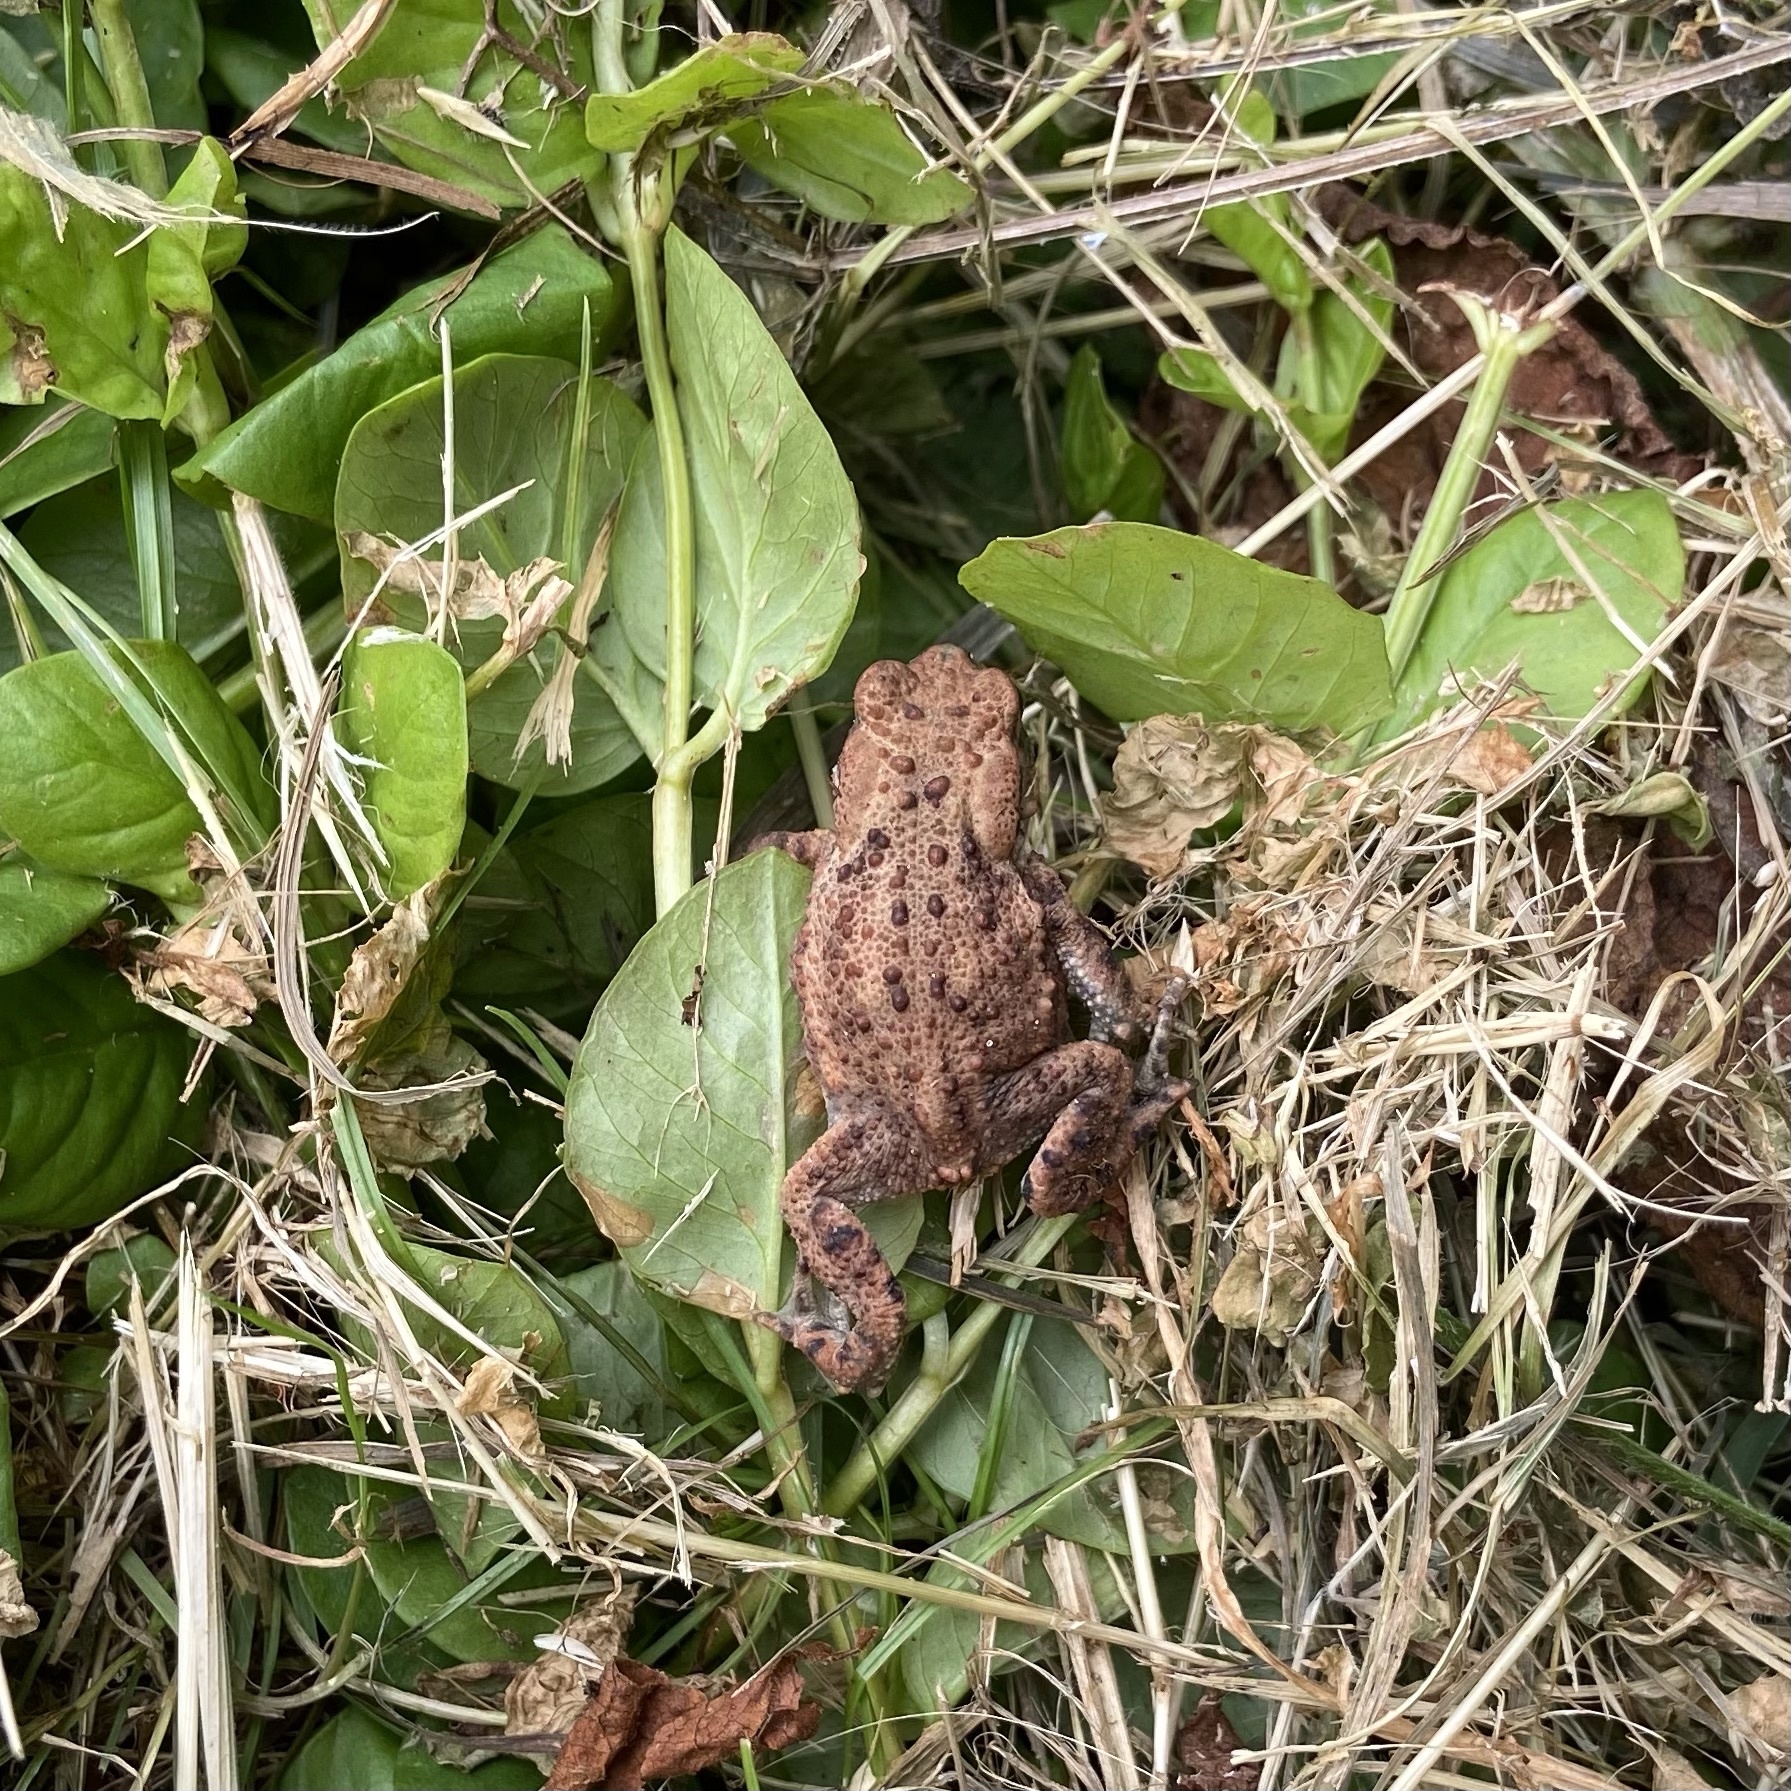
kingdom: Animalia
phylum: Chordata
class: Amphibia
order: Anura
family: Bufonidae
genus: Bufo
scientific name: Bufo bufo
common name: Common toad
